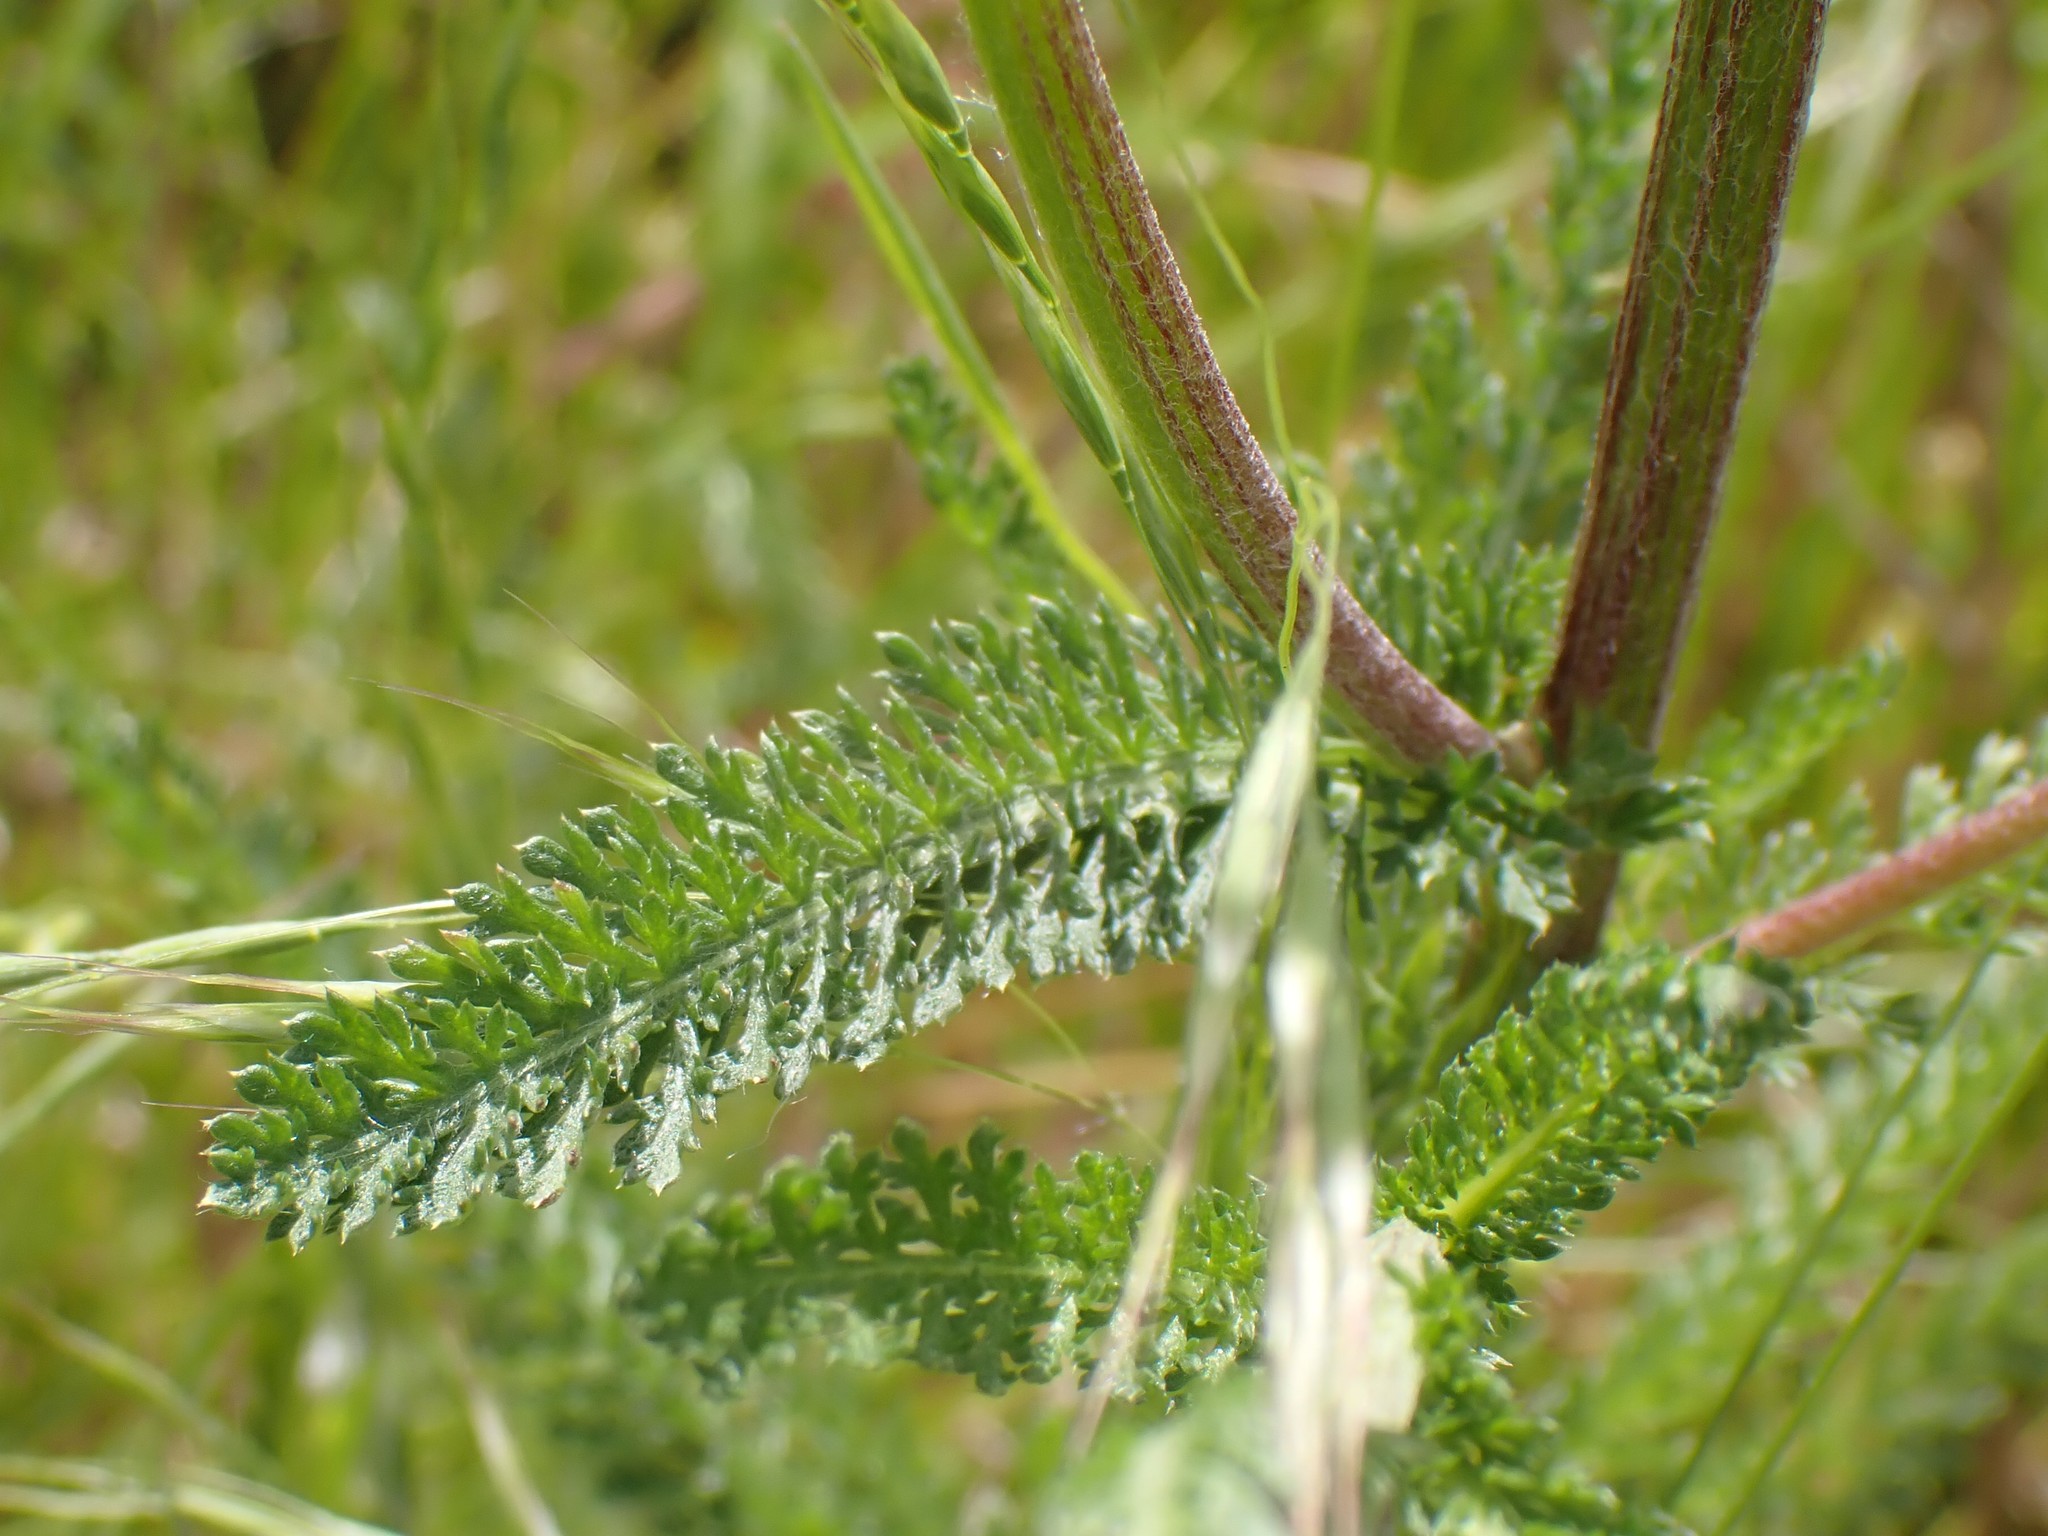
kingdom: Plantae
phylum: Tracheophyta
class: Magnoliopsida
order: Asterales
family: Asteraceae
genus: Achillea
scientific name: Achillea millefolium
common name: Yarrow
